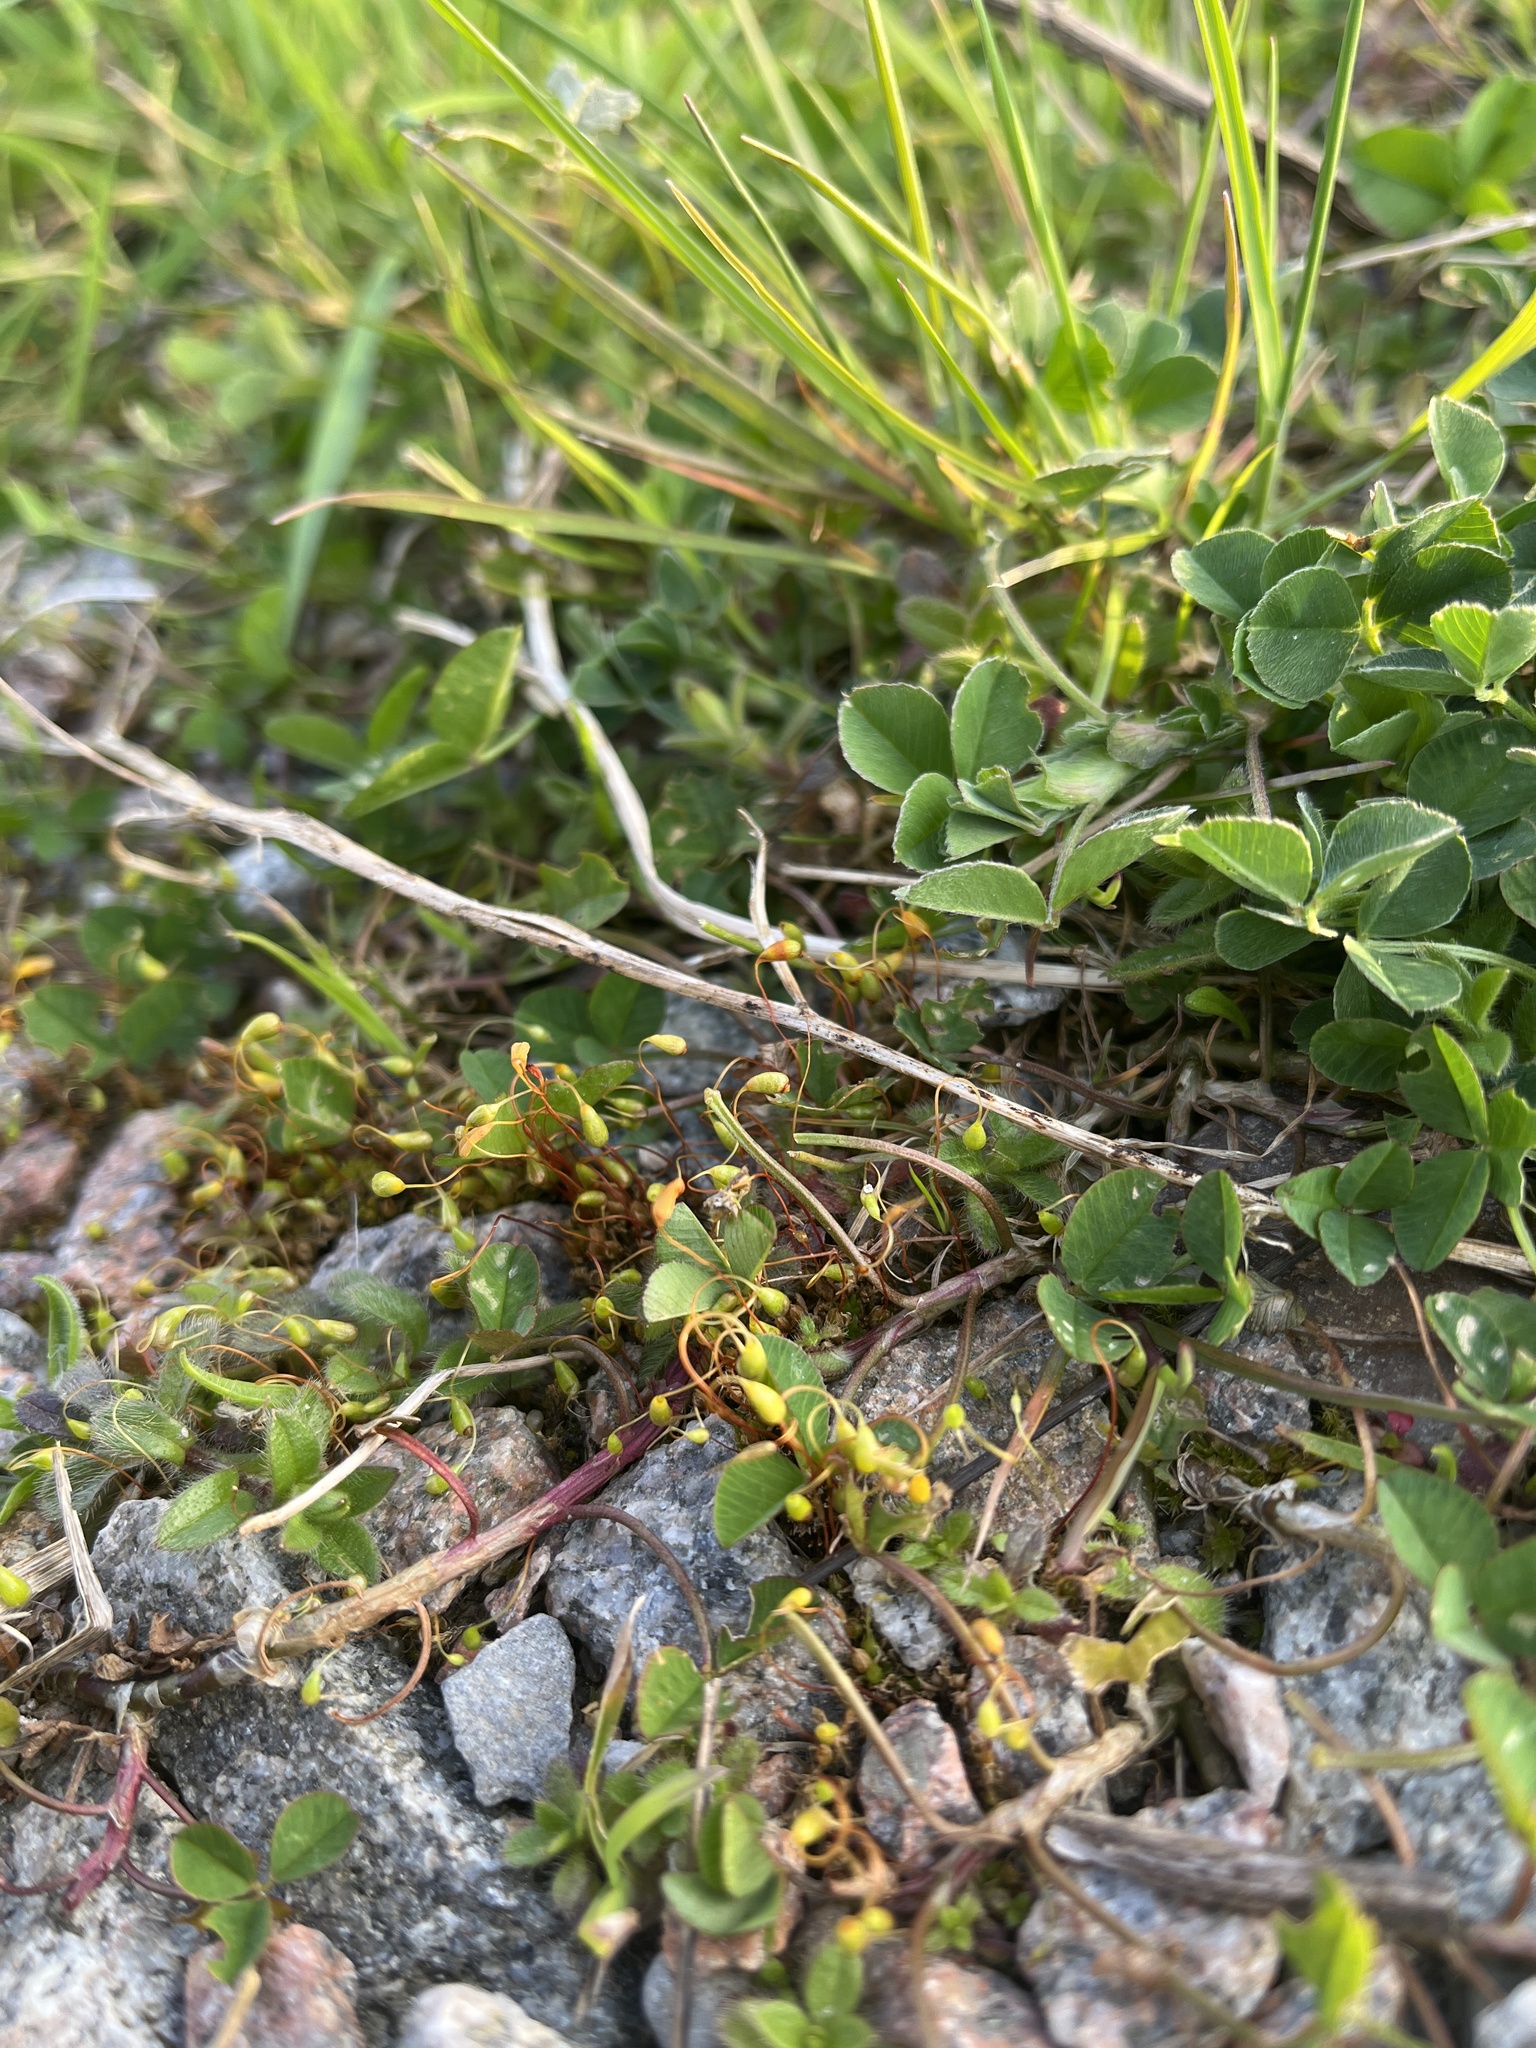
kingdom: Plantae
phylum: Bryophyta
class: Bryopsida
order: Funariales
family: Funariaceae
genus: Funaria
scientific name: Funaria hygrometrica
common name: Common cord moss
